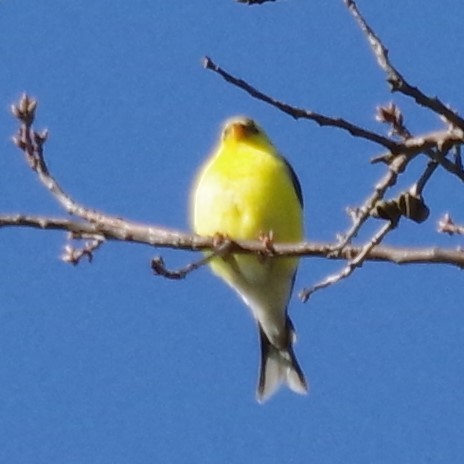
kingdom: Animalia
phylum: Chordata
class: Aves
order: Passeriformes
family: Fringillidae
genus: Spinus
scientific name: Spinus tristis
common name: American goldfinch
